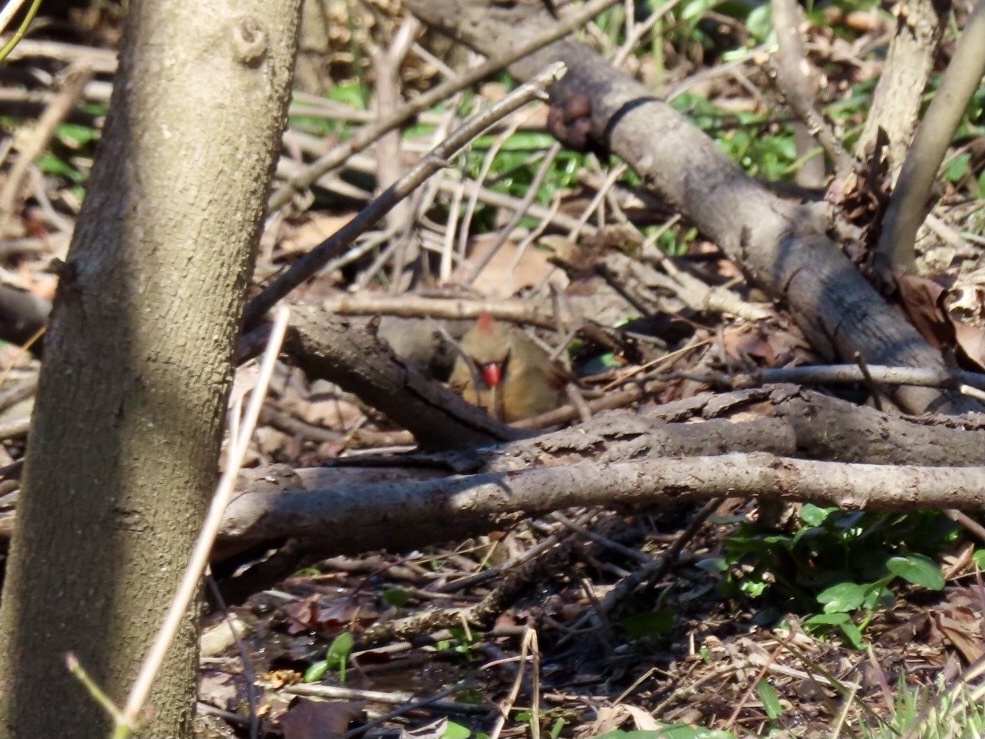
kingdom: Animalia
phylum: Chordata
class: Aves
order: Passeriformes
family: Cardinalidae
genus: Cardinalis
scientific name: Cardinalis cardinalis
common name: Northern cardinal
